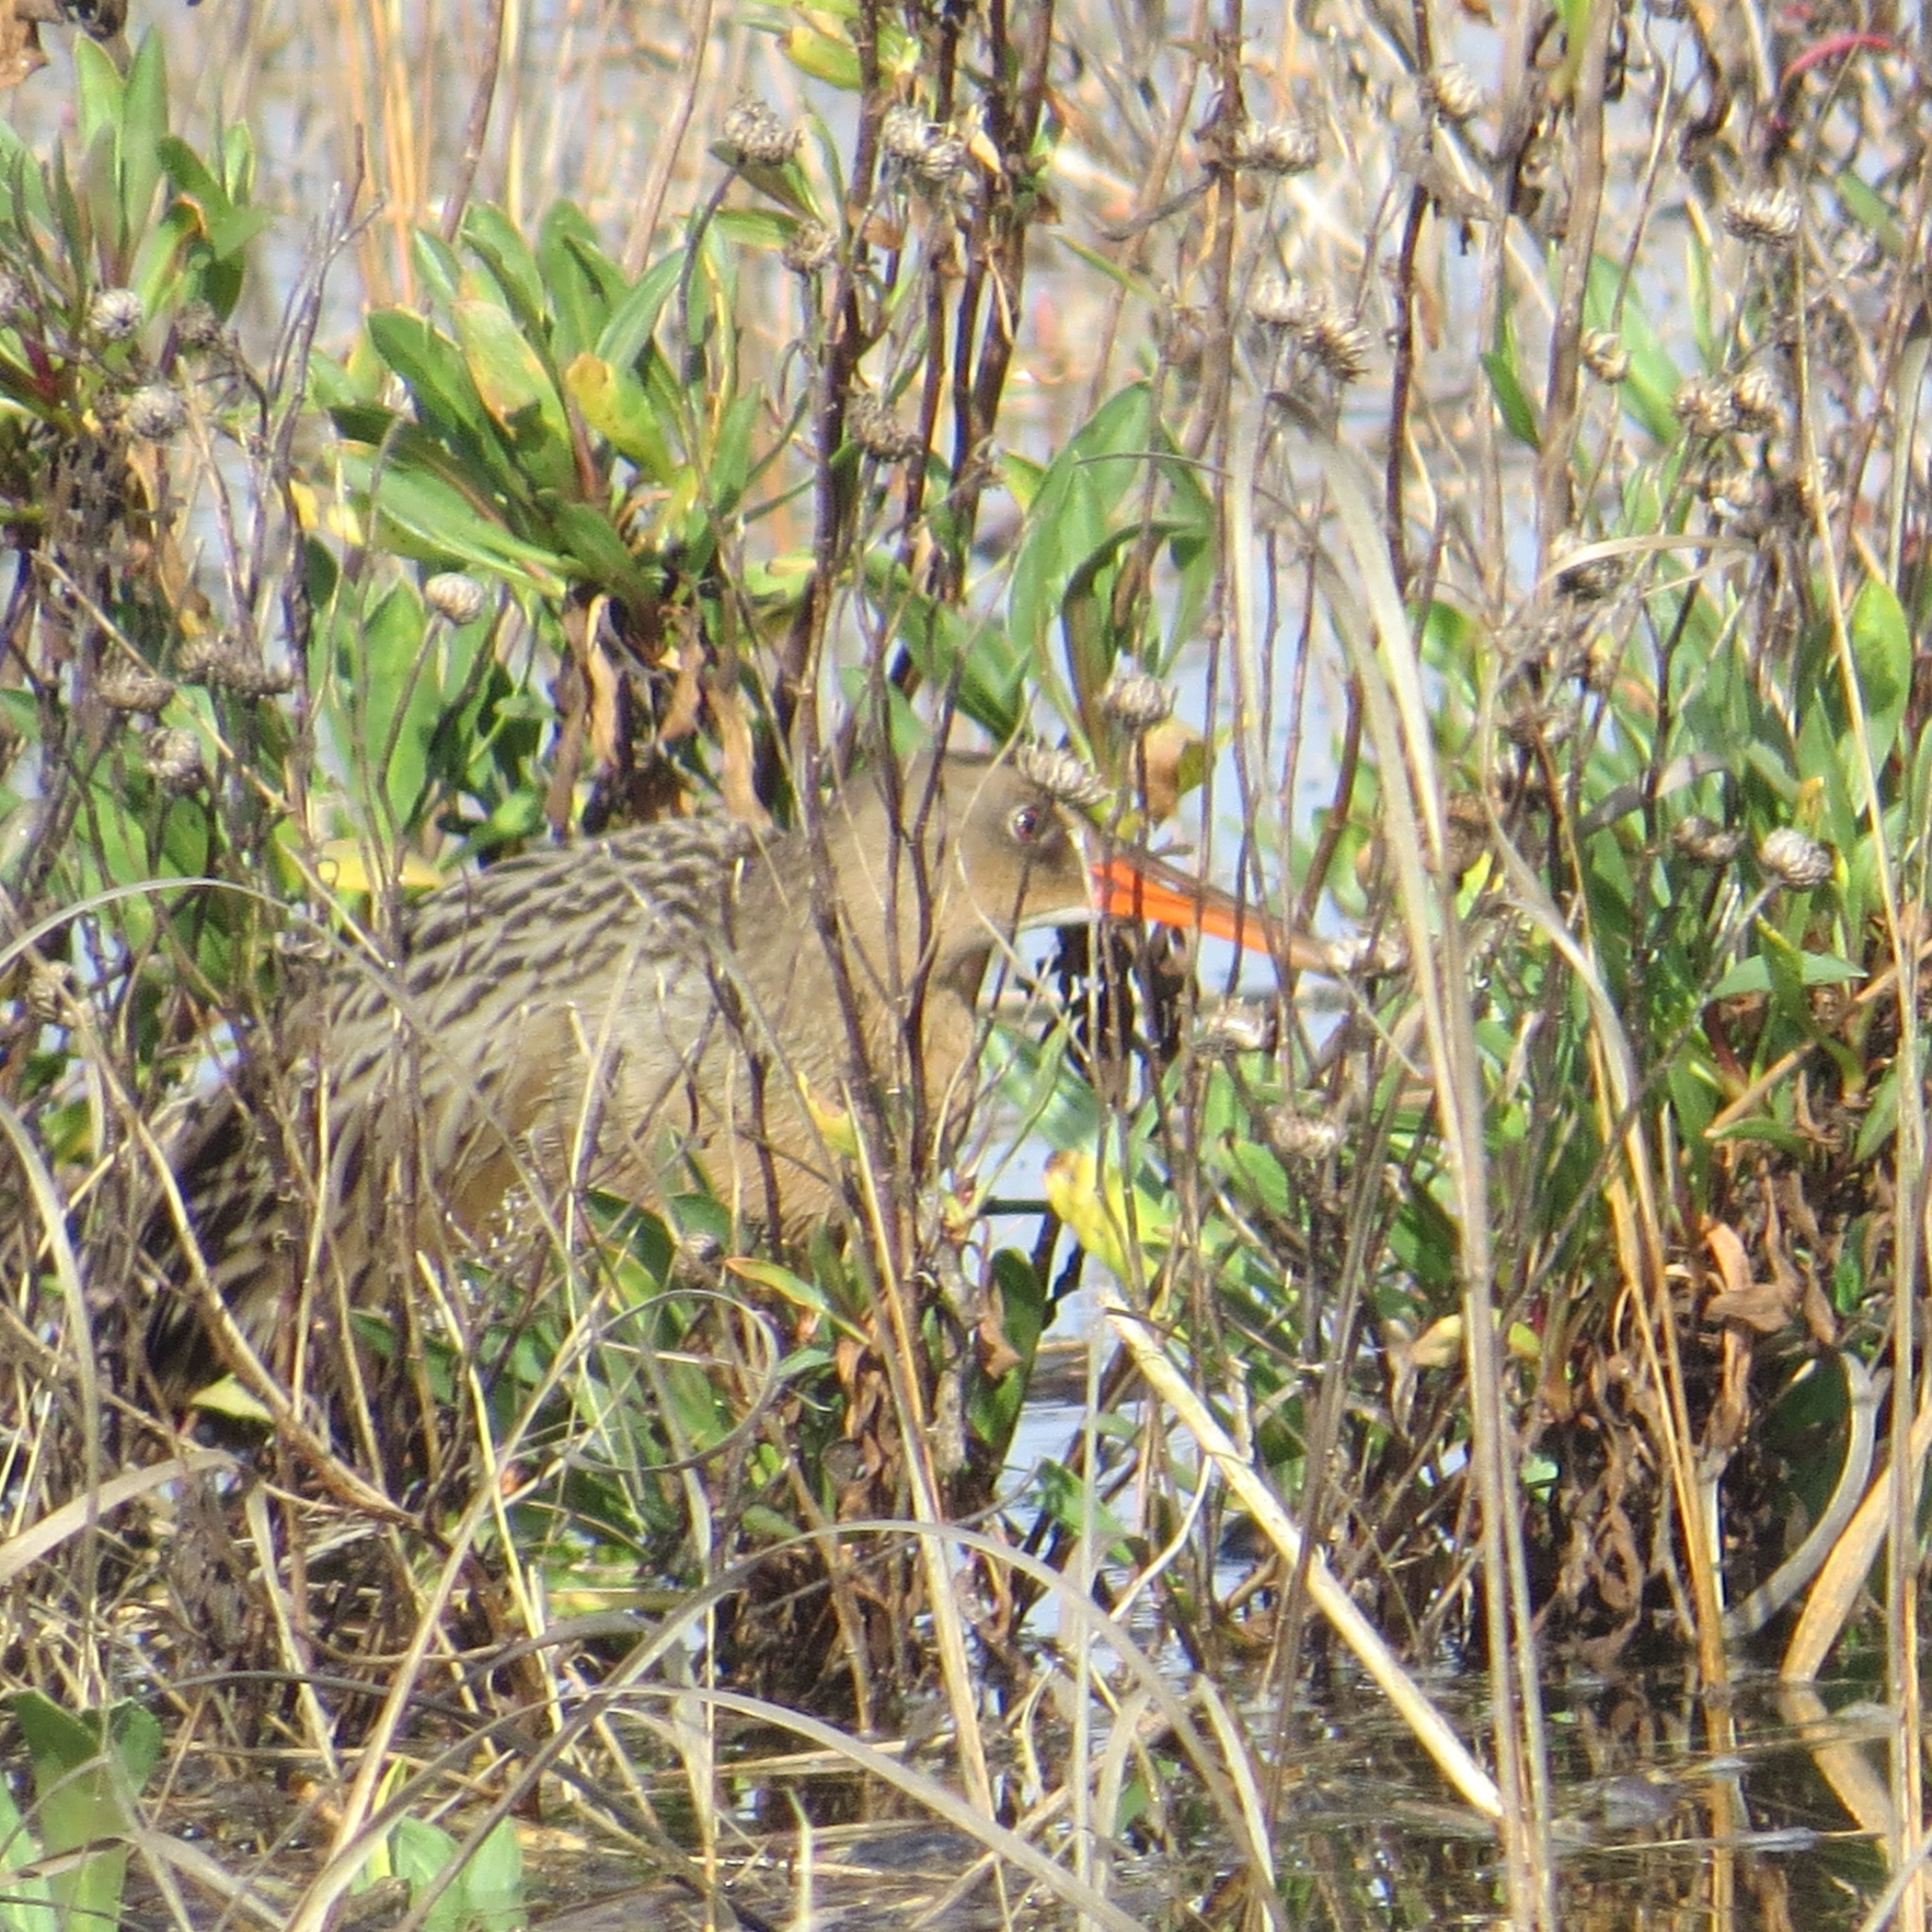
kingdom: Animalia
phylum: Chordata
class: Aves
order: Gruiformes
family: Rallidae
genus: Rallus
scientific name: Rallus obsoletus
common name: Ridgway's rail
